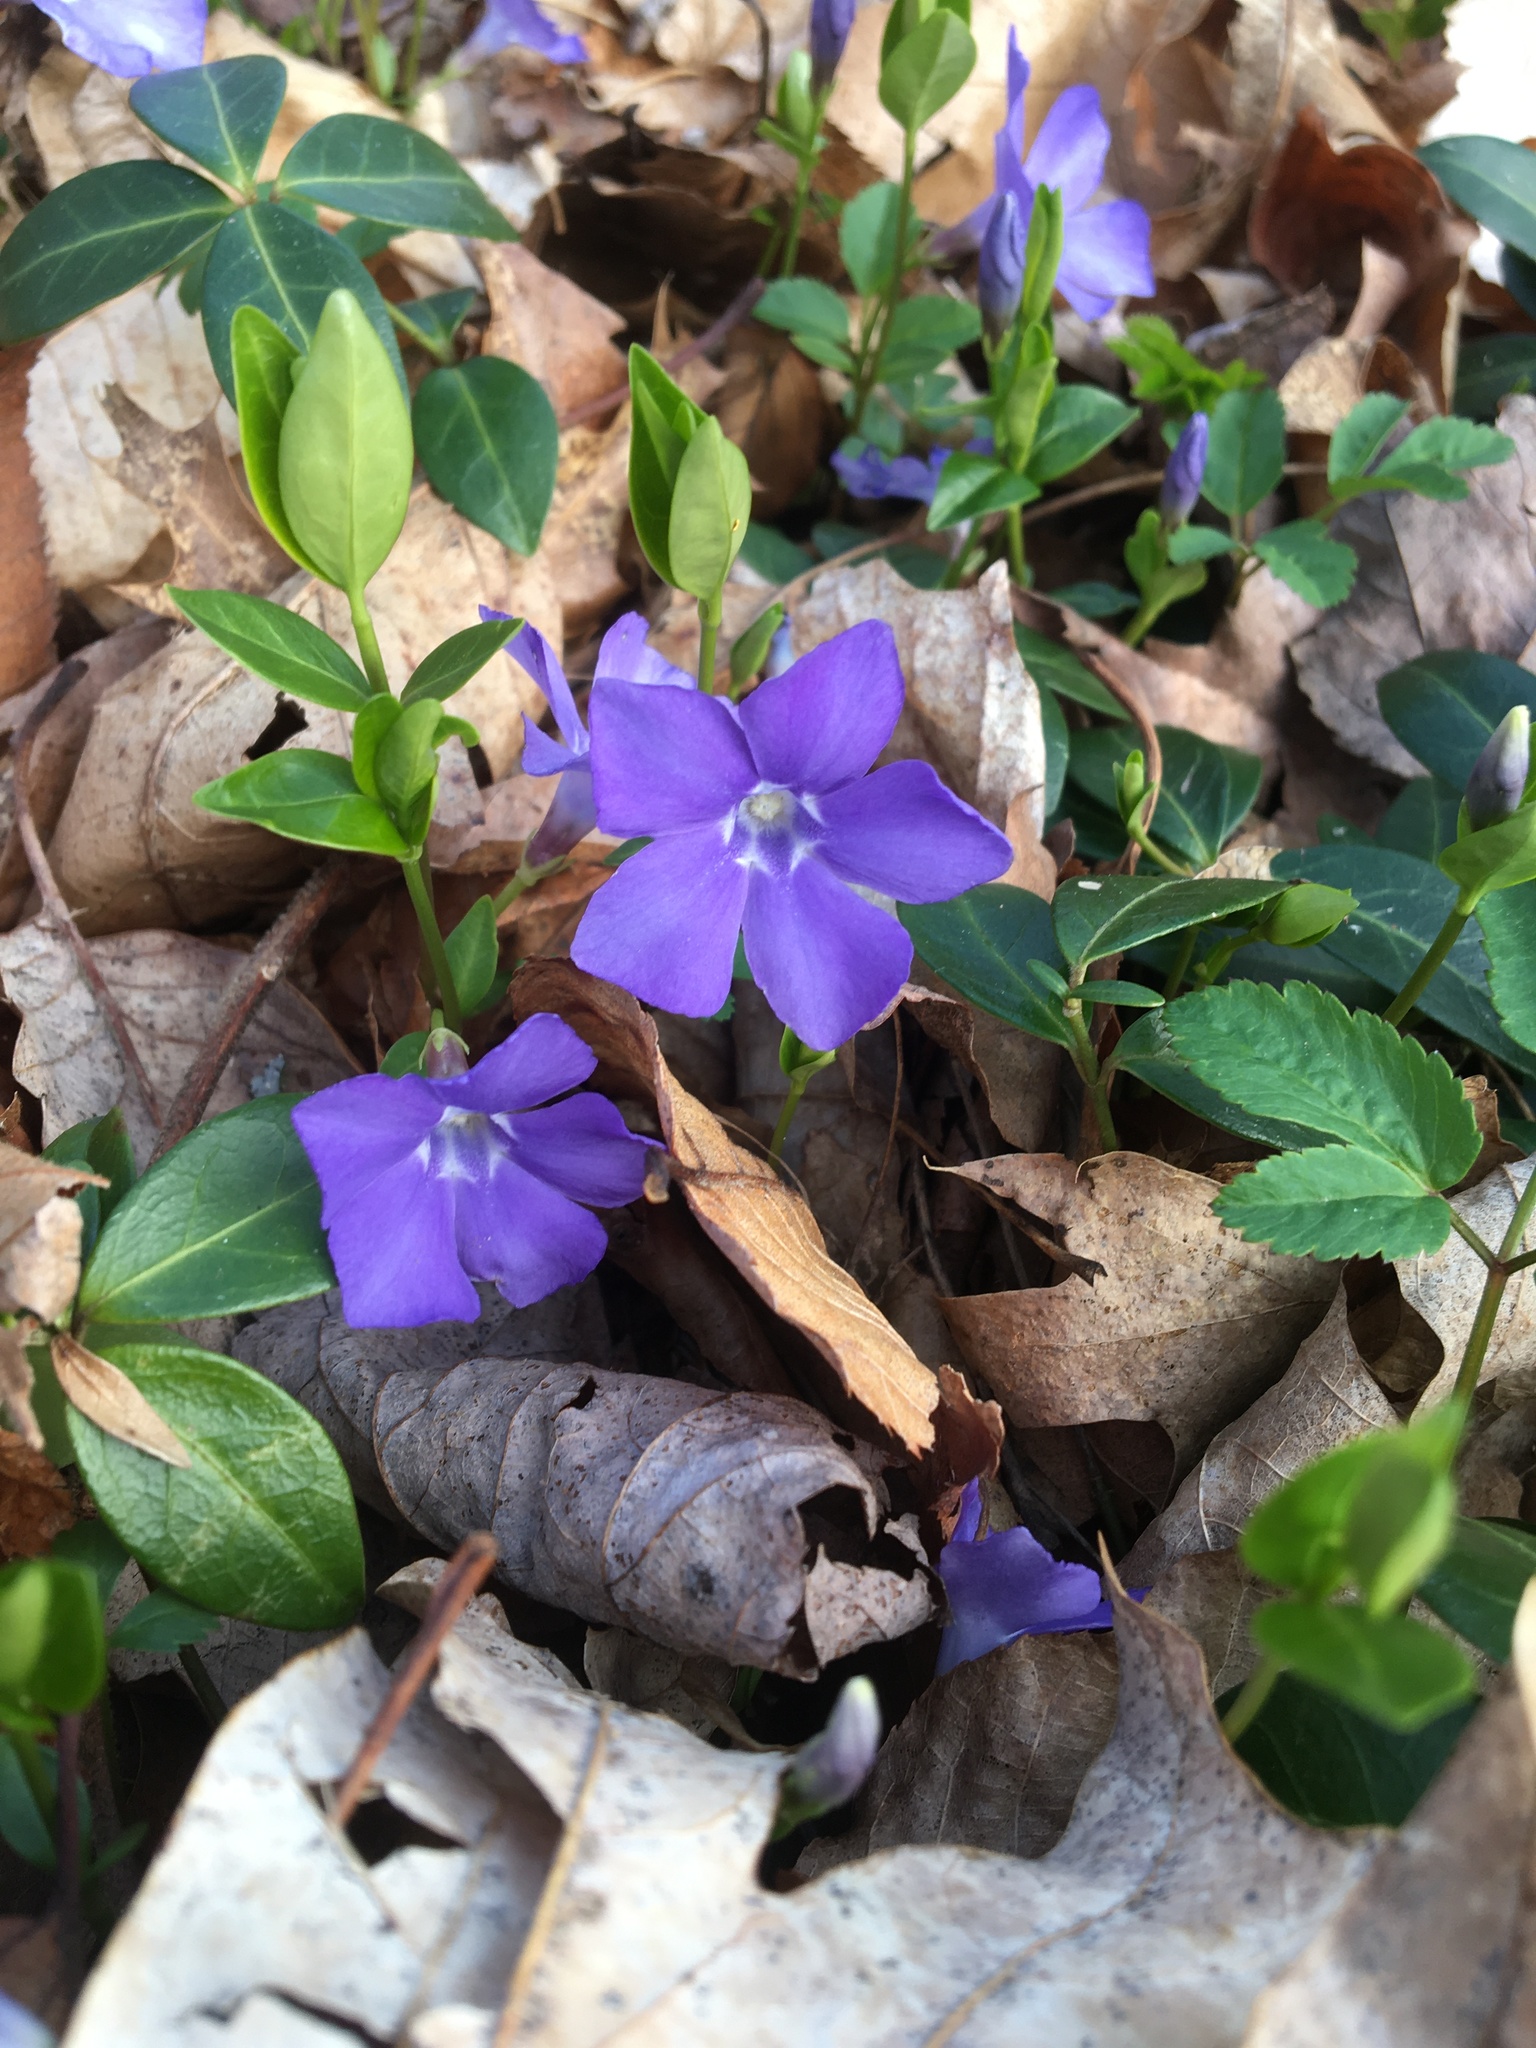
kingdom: Plantae
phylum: Tracheophyta
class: Magnoliopsida
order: Gentianales
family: Apocynaceae
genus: Vinca
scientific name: Vinca minor
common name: Lesser periwinkle
